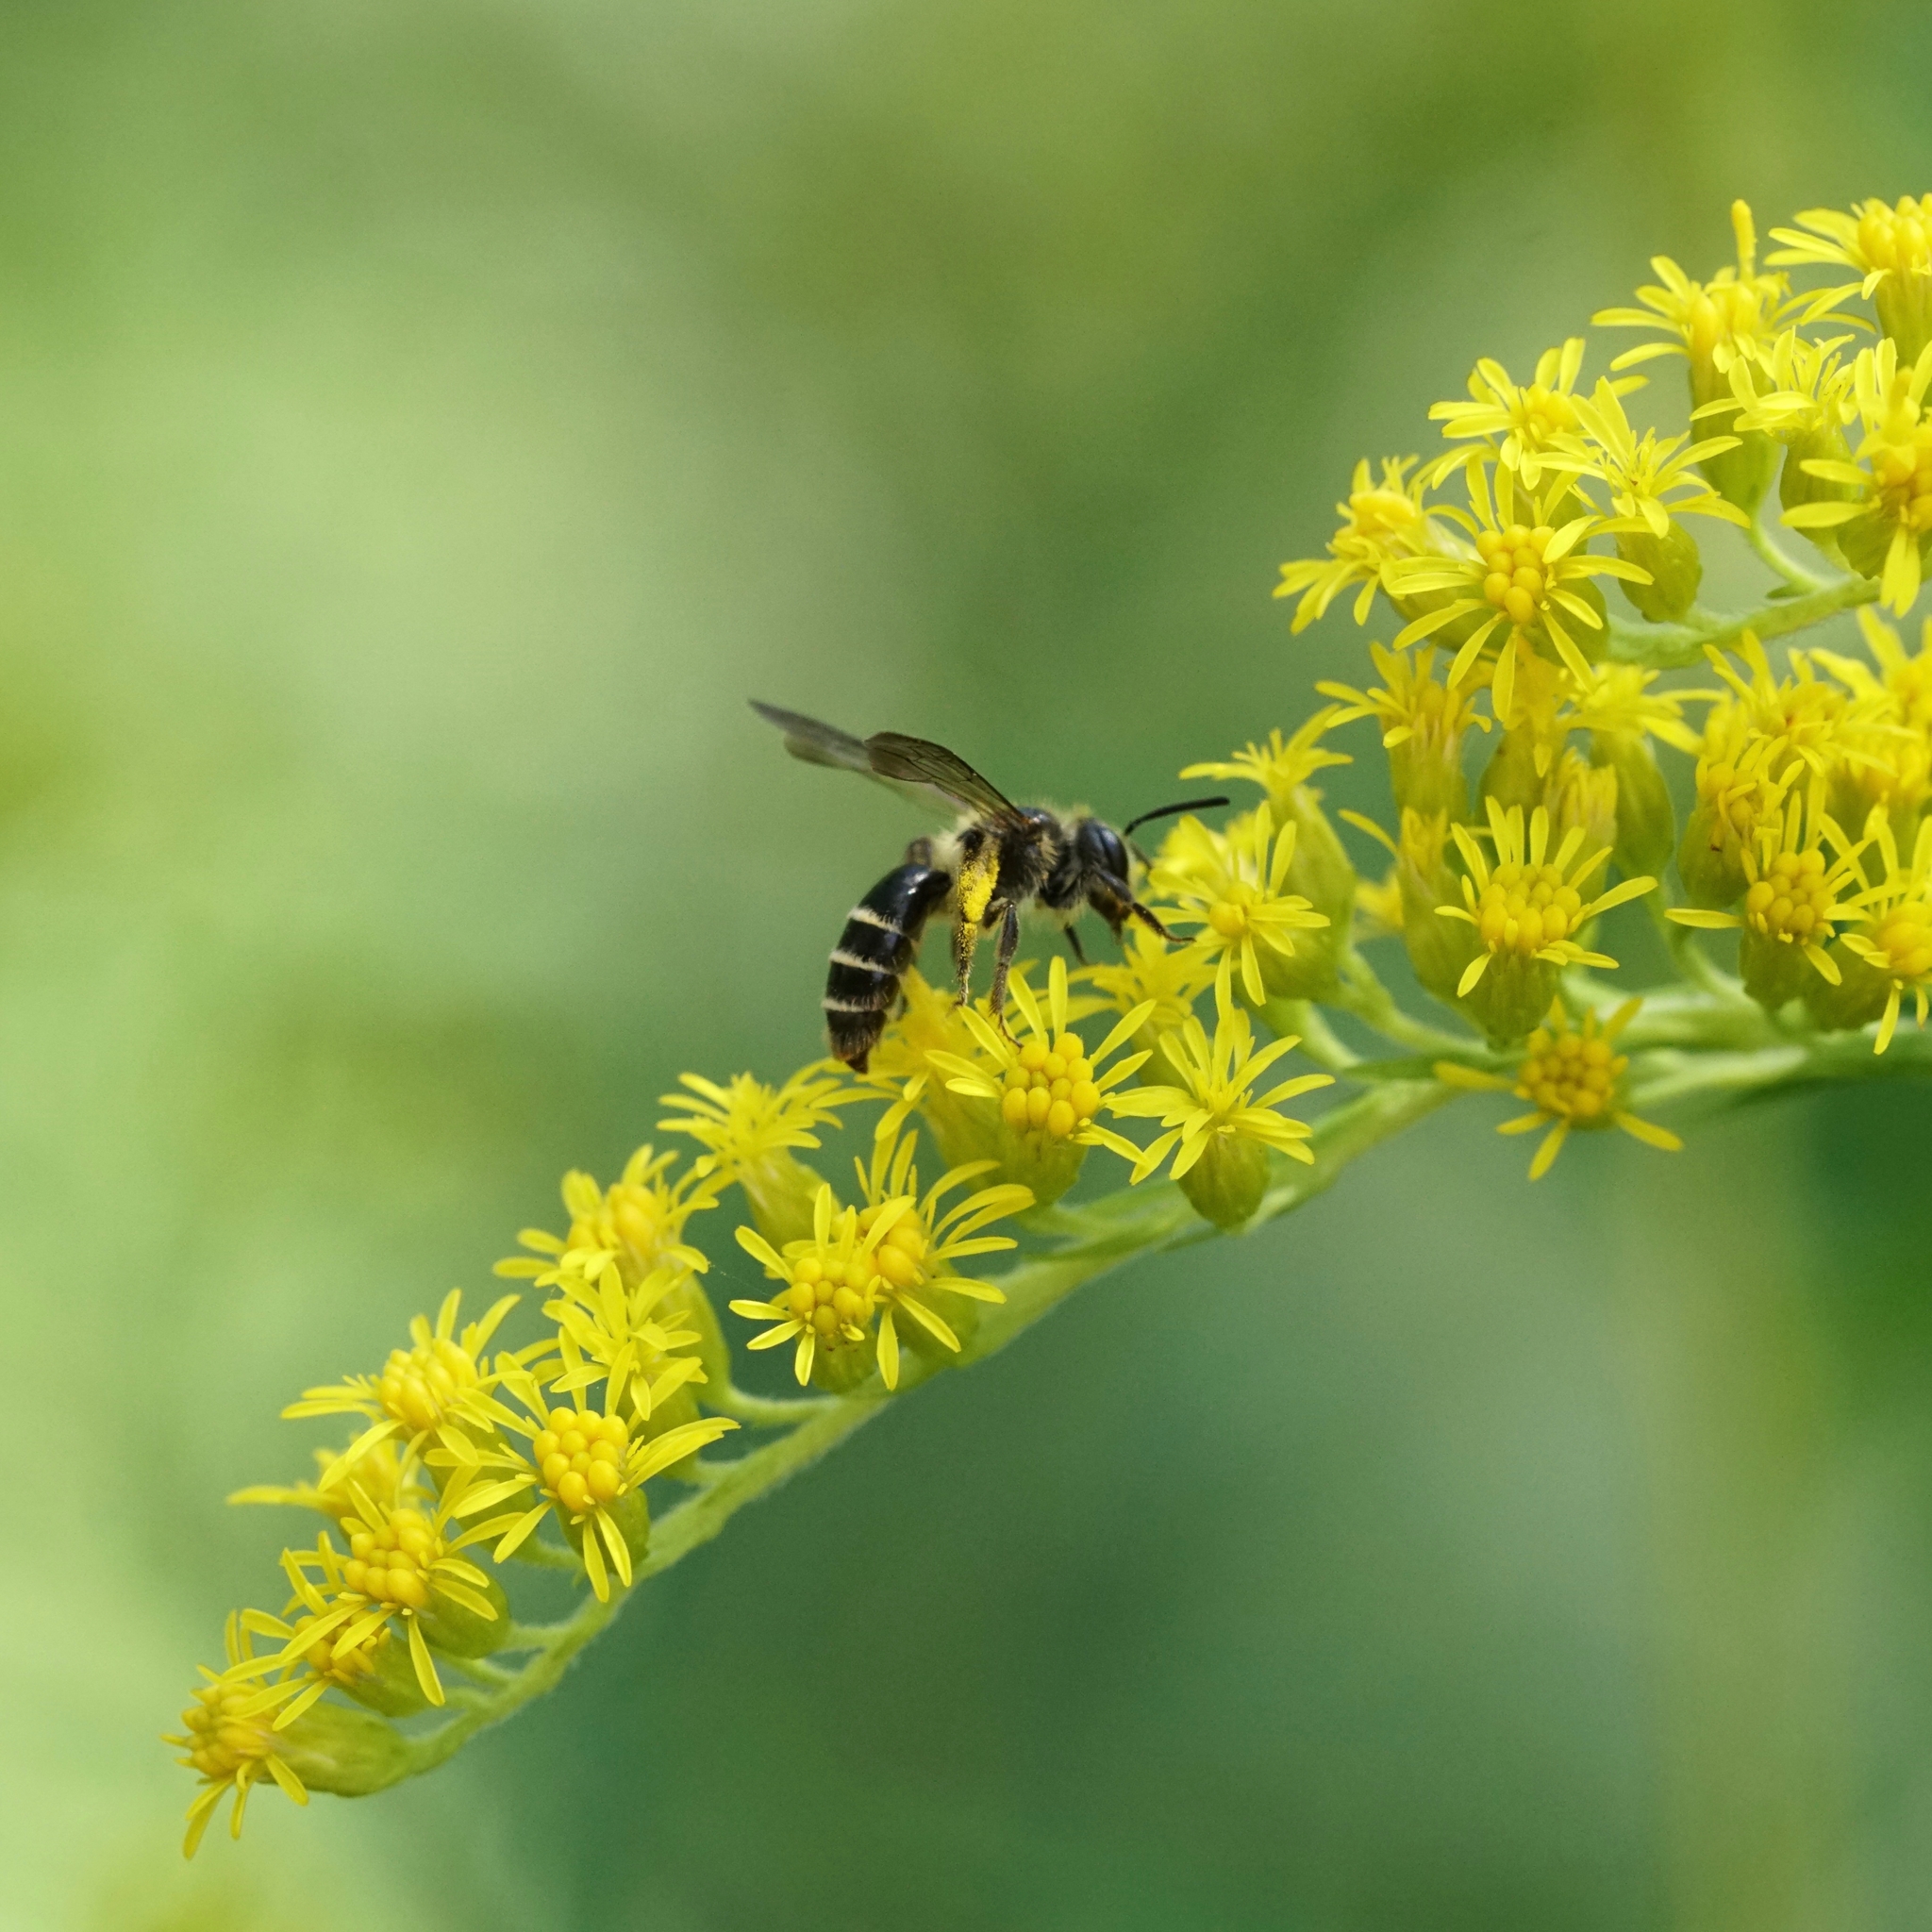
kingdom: Animalia
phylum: Arthropoda
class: Insecta
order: Hymenoptera
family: Andrenidae
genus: Andrena
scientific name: Andrena nubecula
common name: Cloudy-winged mining bee
